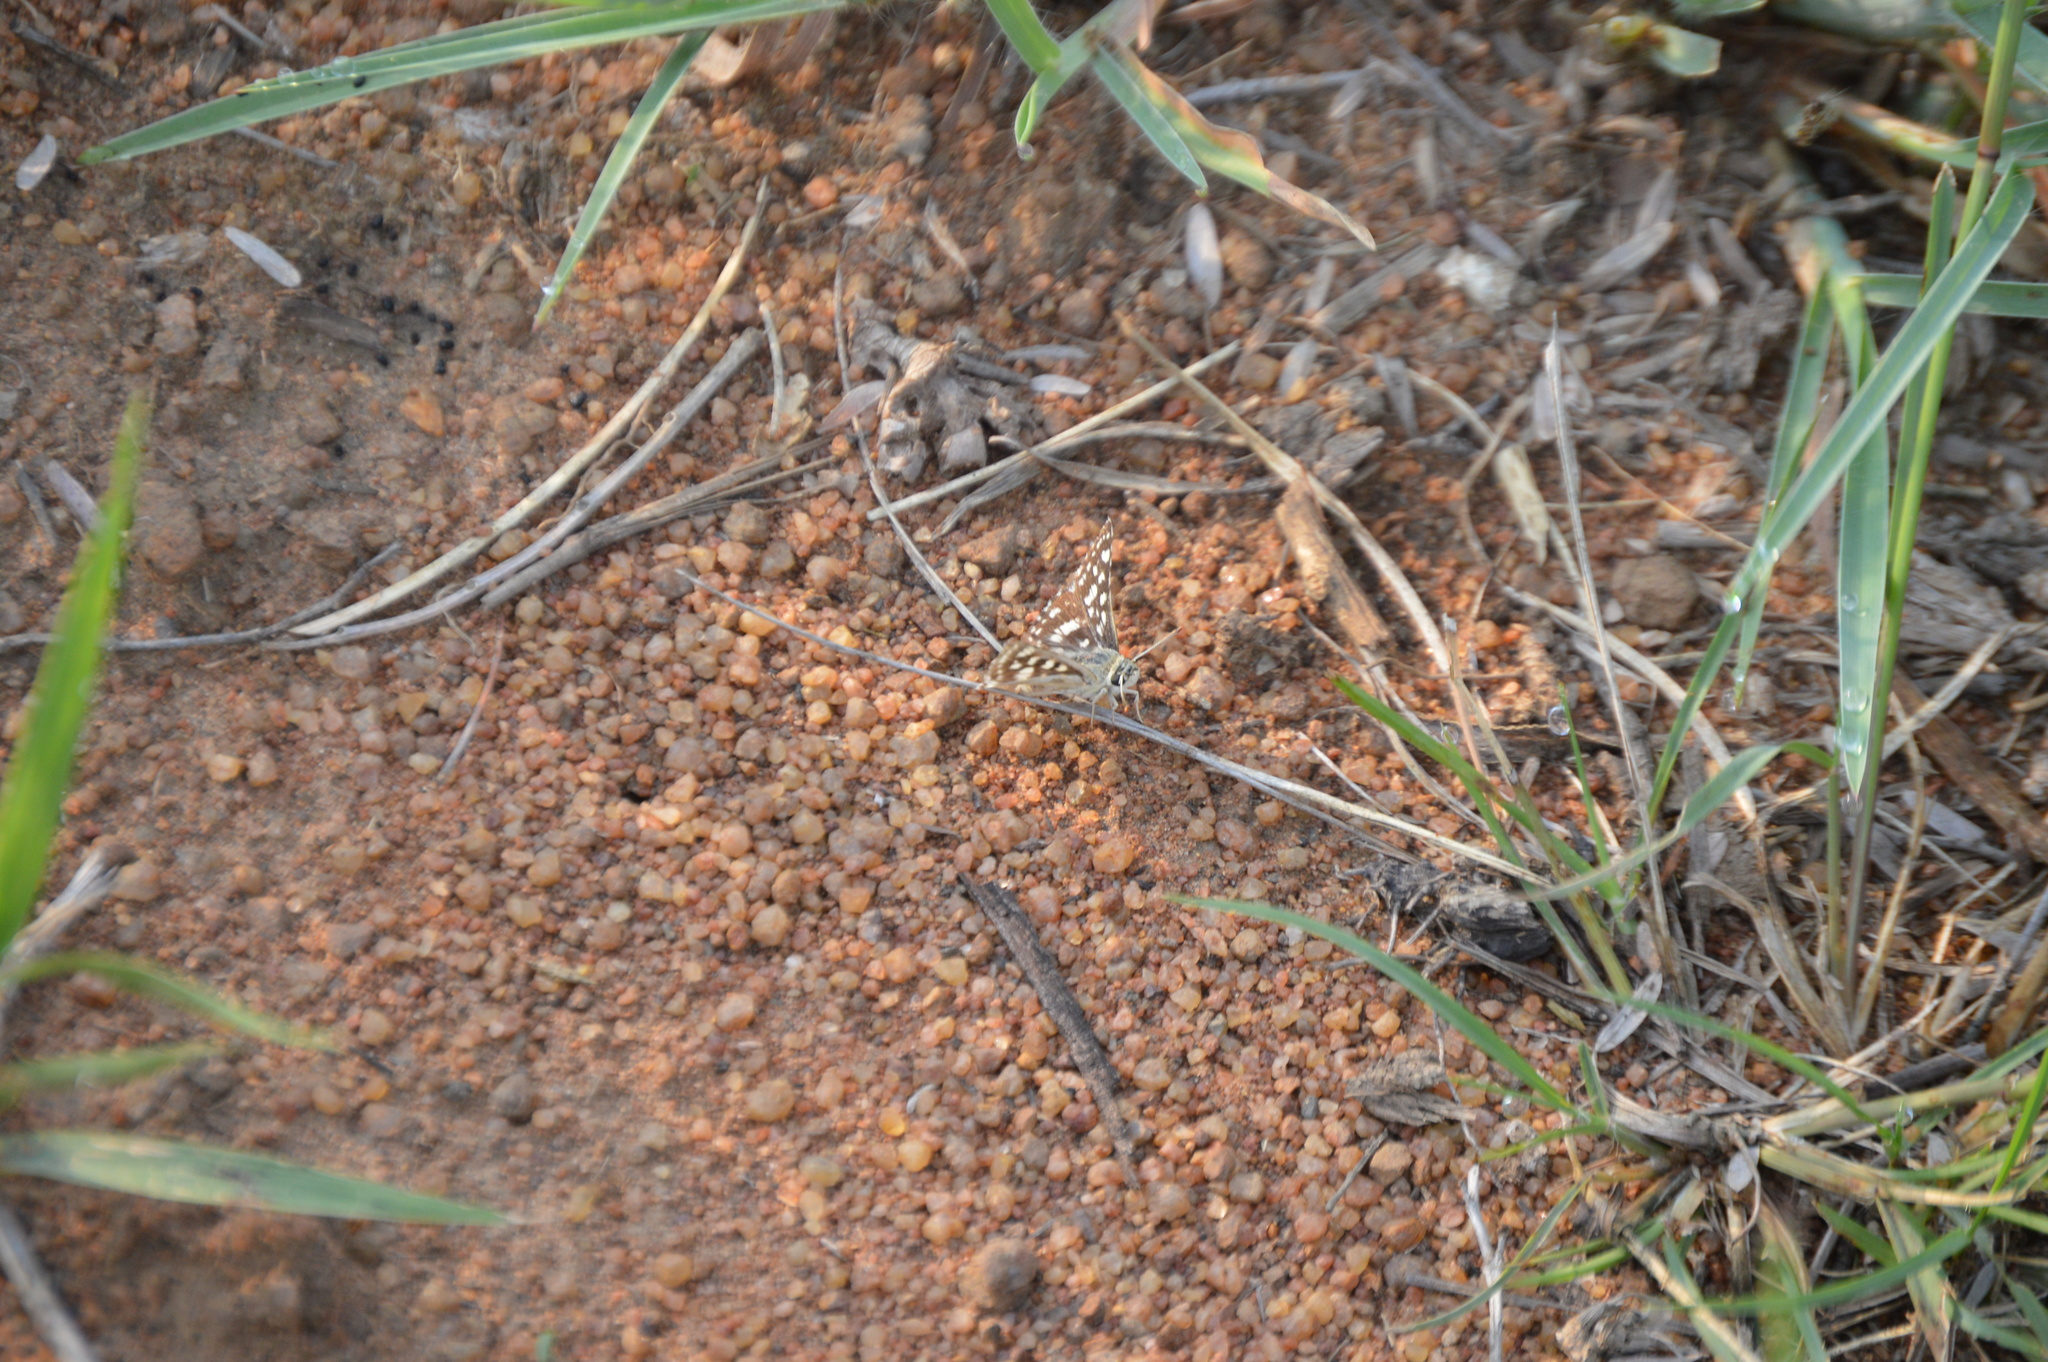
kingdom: Animalia
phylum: Arthropoda
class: Insecta
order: Lepidoptera
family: Hesperiidae
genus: Spialia
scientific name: Spialia mafa
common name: Mafa sandman
